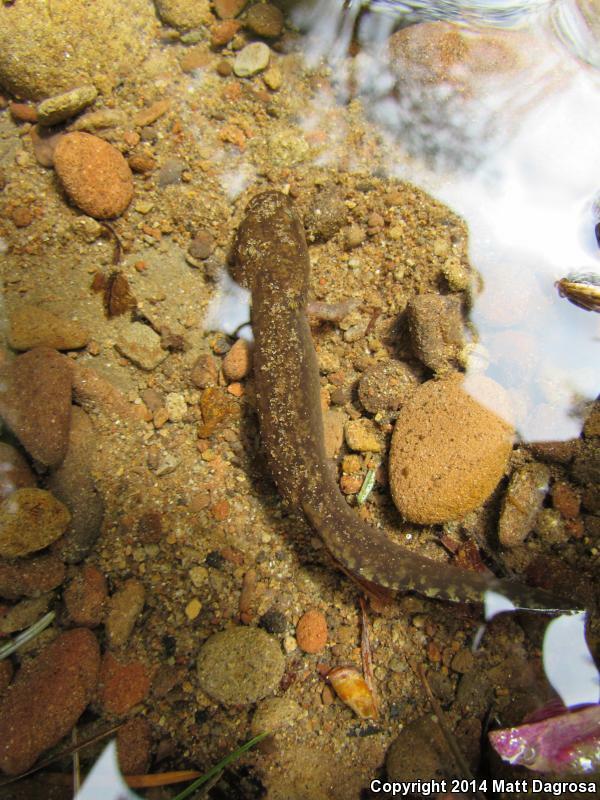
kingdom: Animalia
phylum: Chordata
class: Amphibia
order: Caudata
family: Ambystomatidae
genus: Dicamptodon
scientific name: Dicamptodon tenebrosus
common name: Coastal giant salamander
